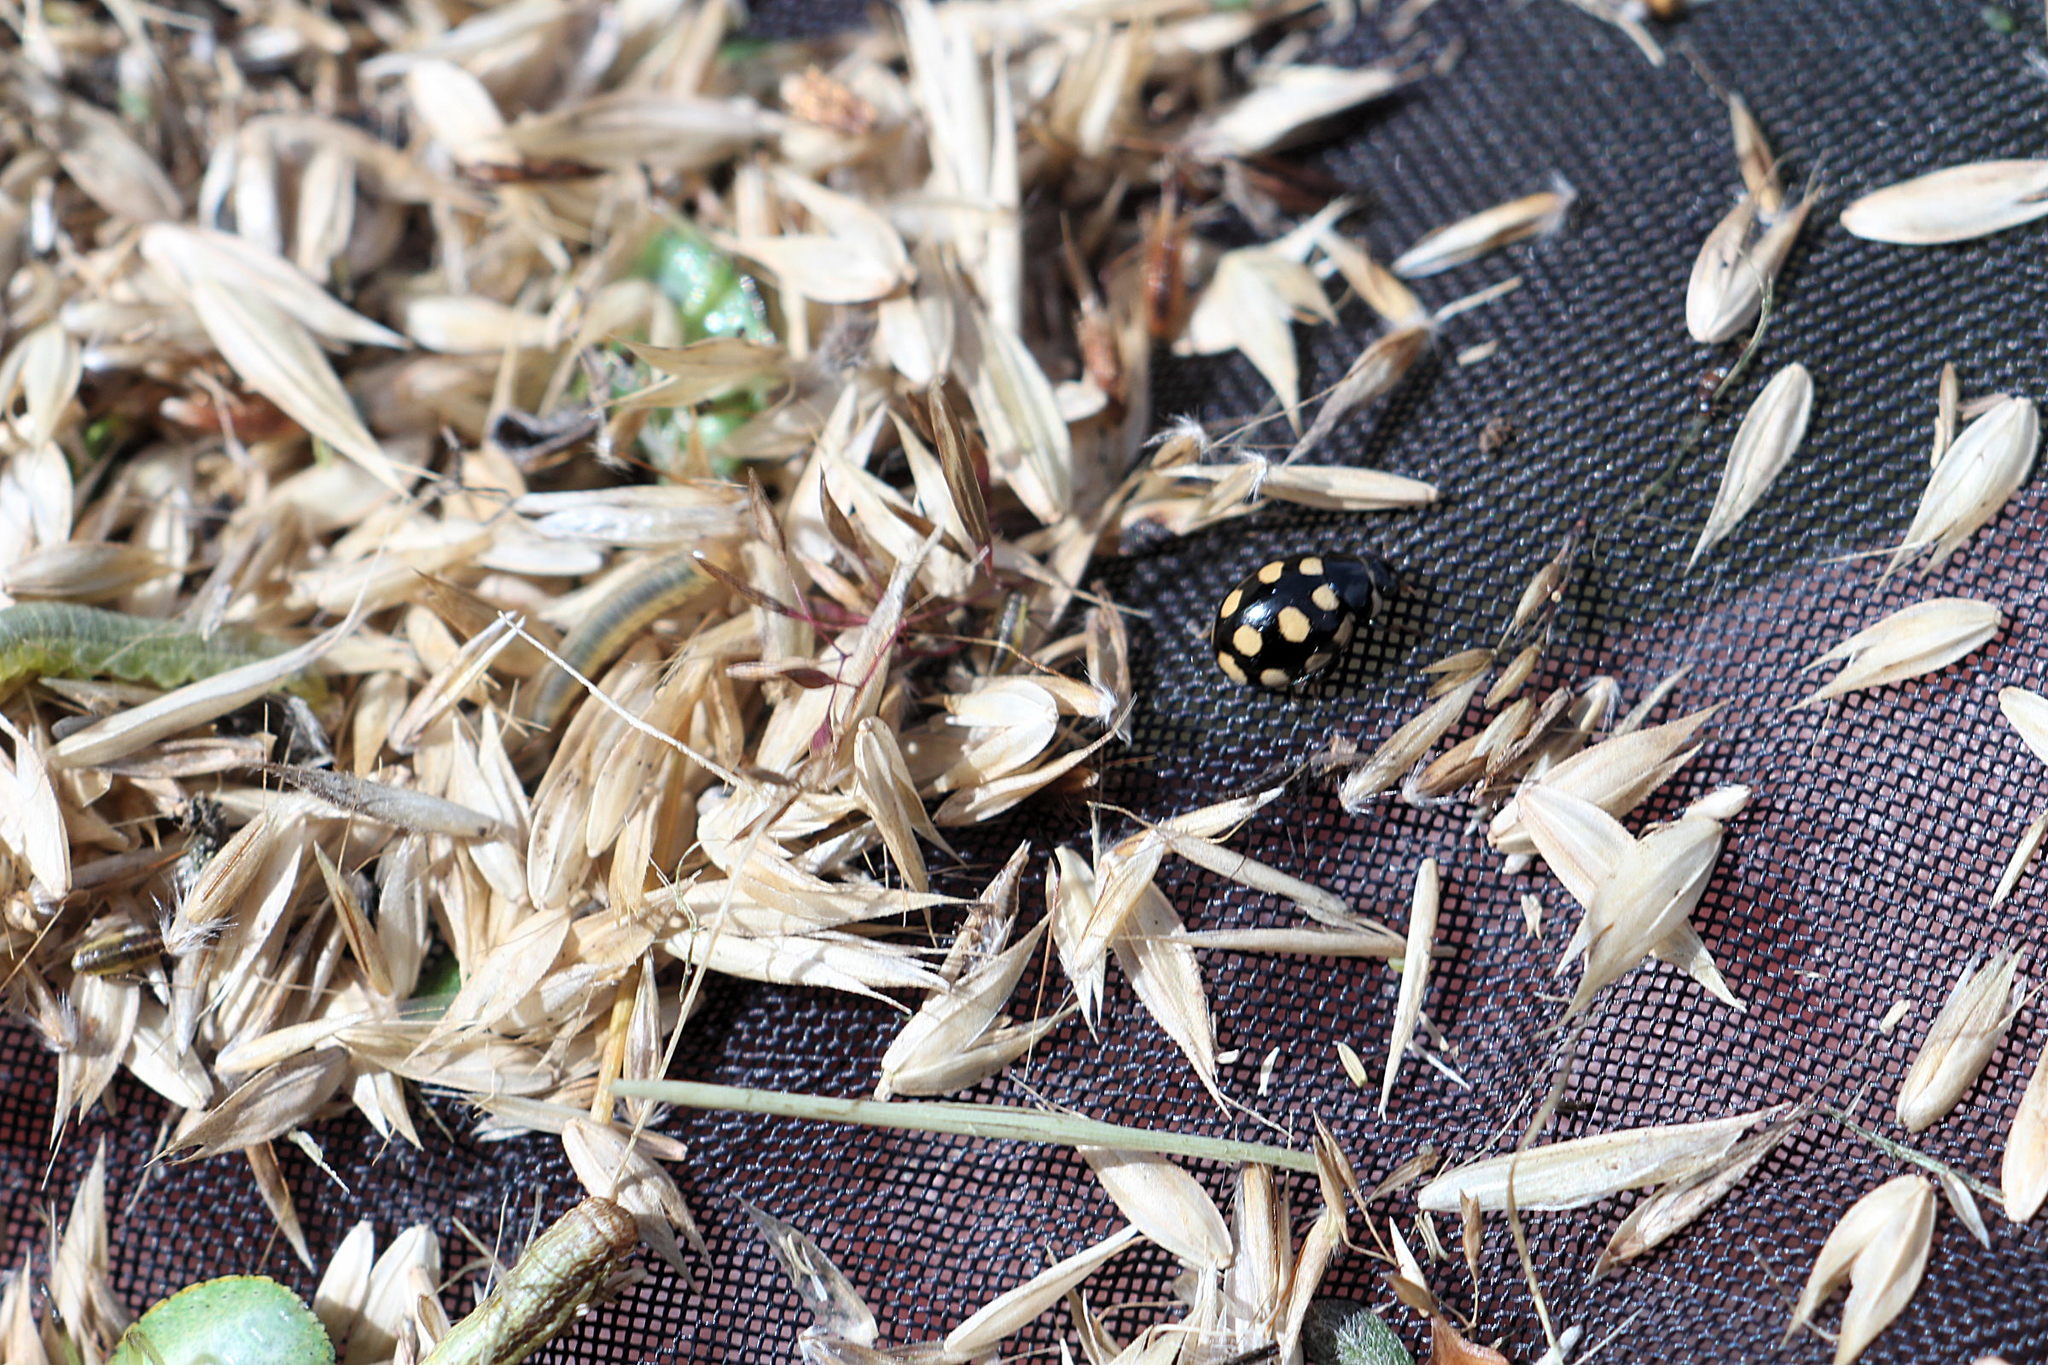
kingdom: Animalia
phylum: Arthropoda
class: Insecta
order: Coleoptera
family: Coccinellidae
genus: Coccinula
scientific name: Coccinula quatuordecimpustulata
